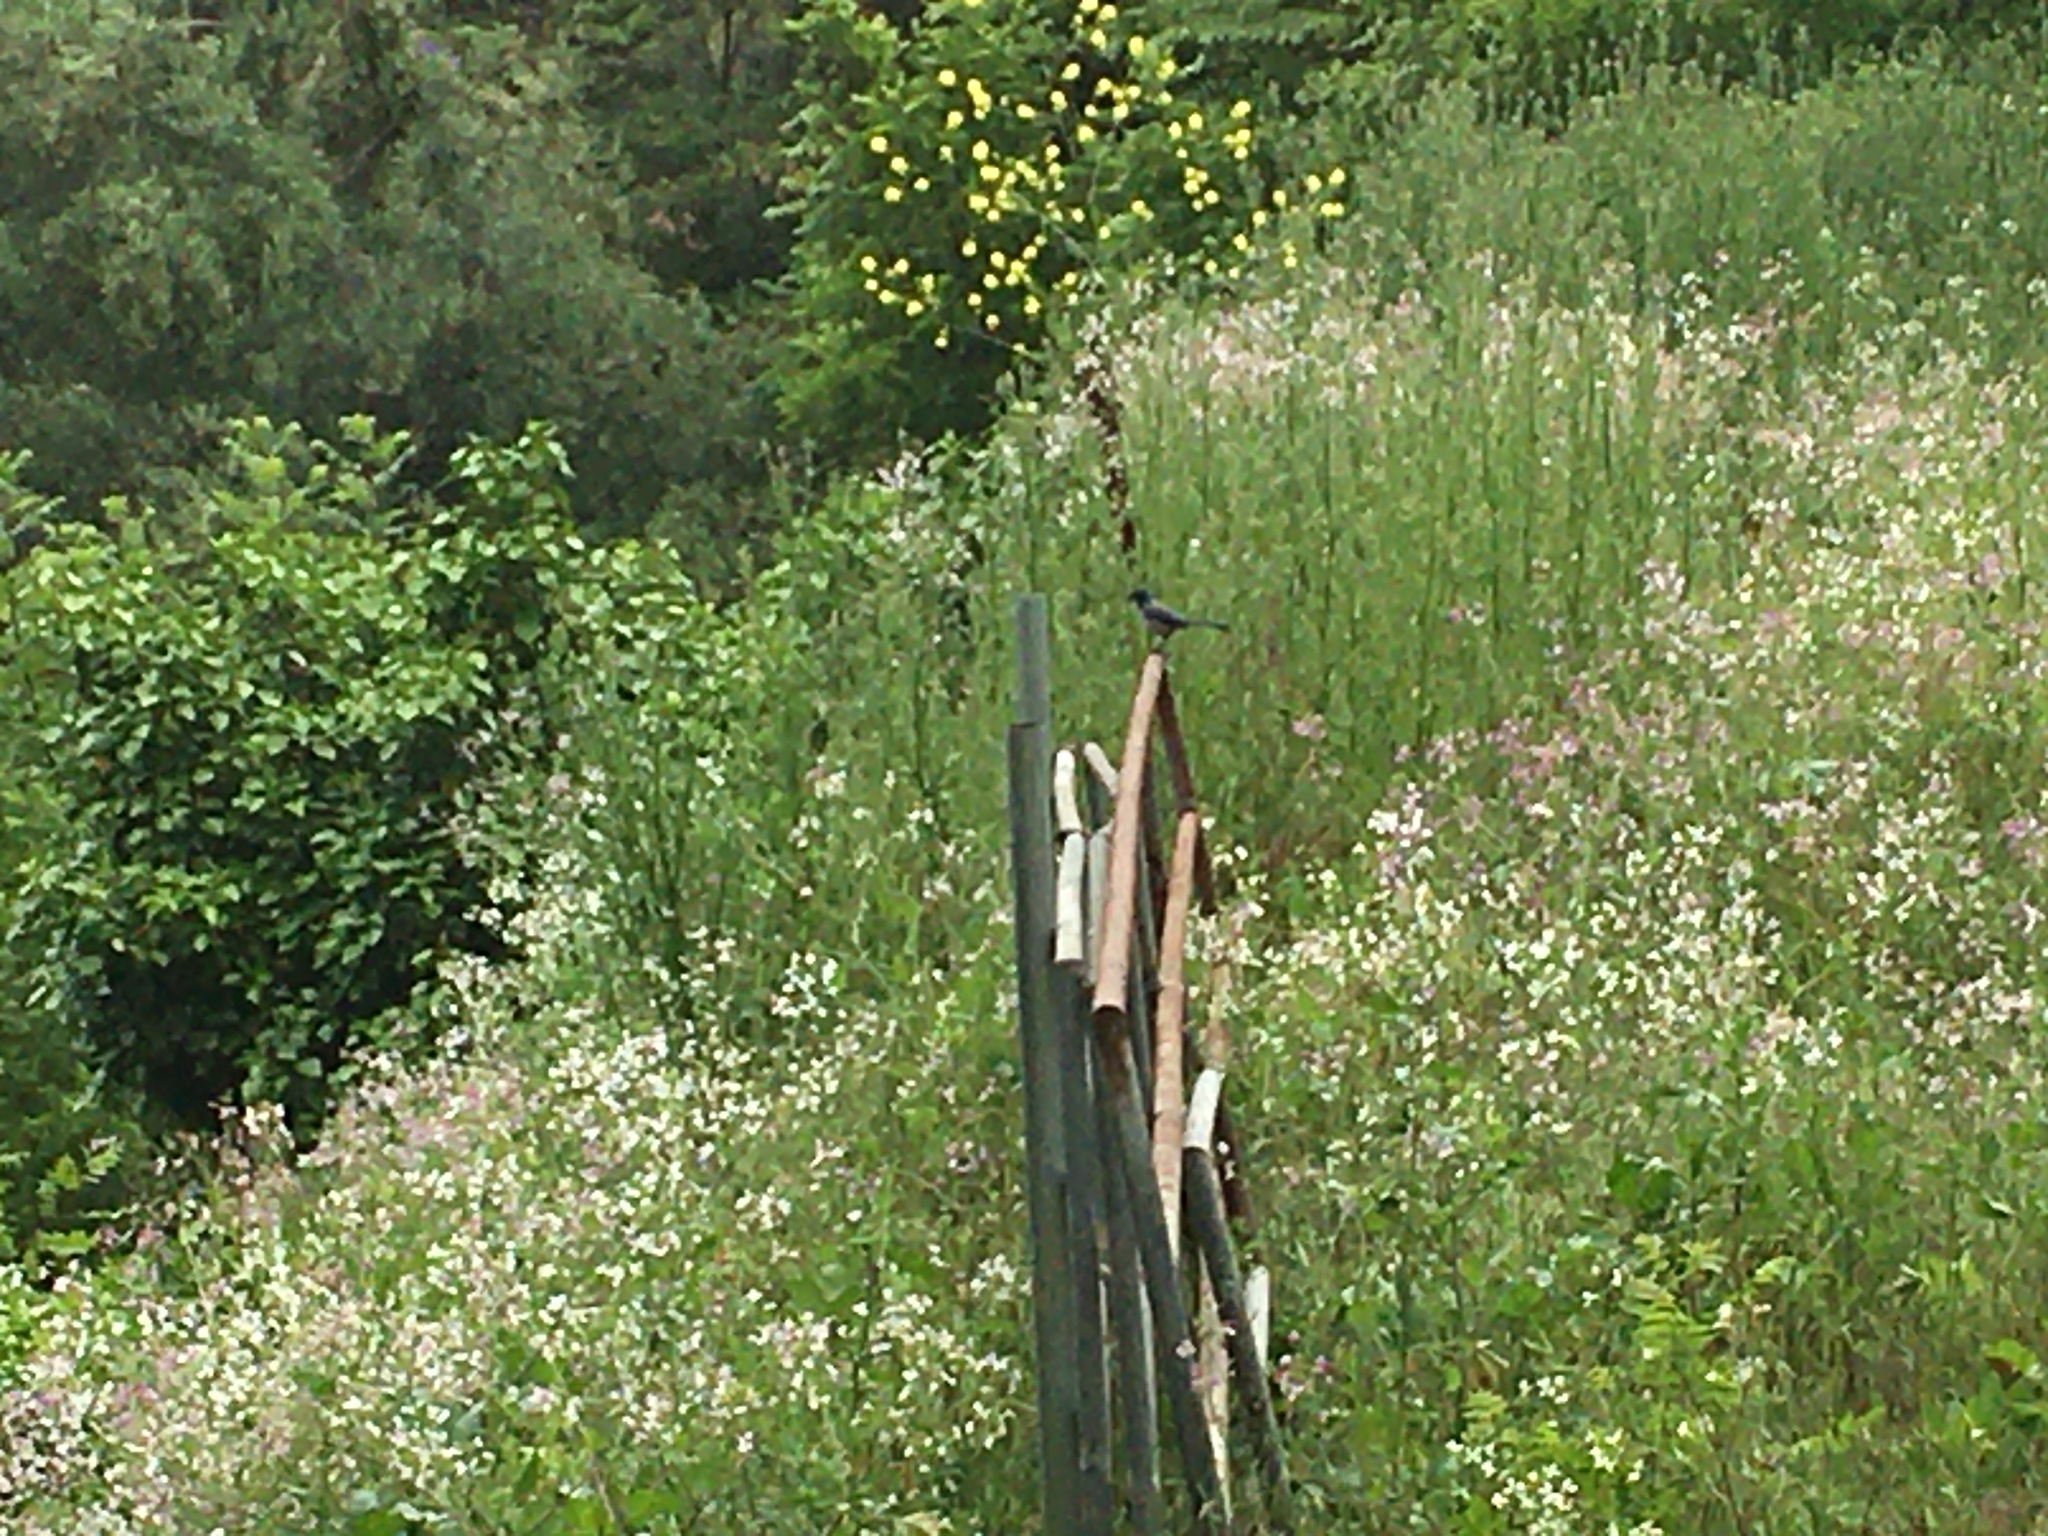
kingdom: Animalia
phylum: Chordata
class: Aves
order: Passeriformes
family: Corvidae
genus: Aphelocoma
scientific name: Aphelocoma californica
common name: California scrub-jay
